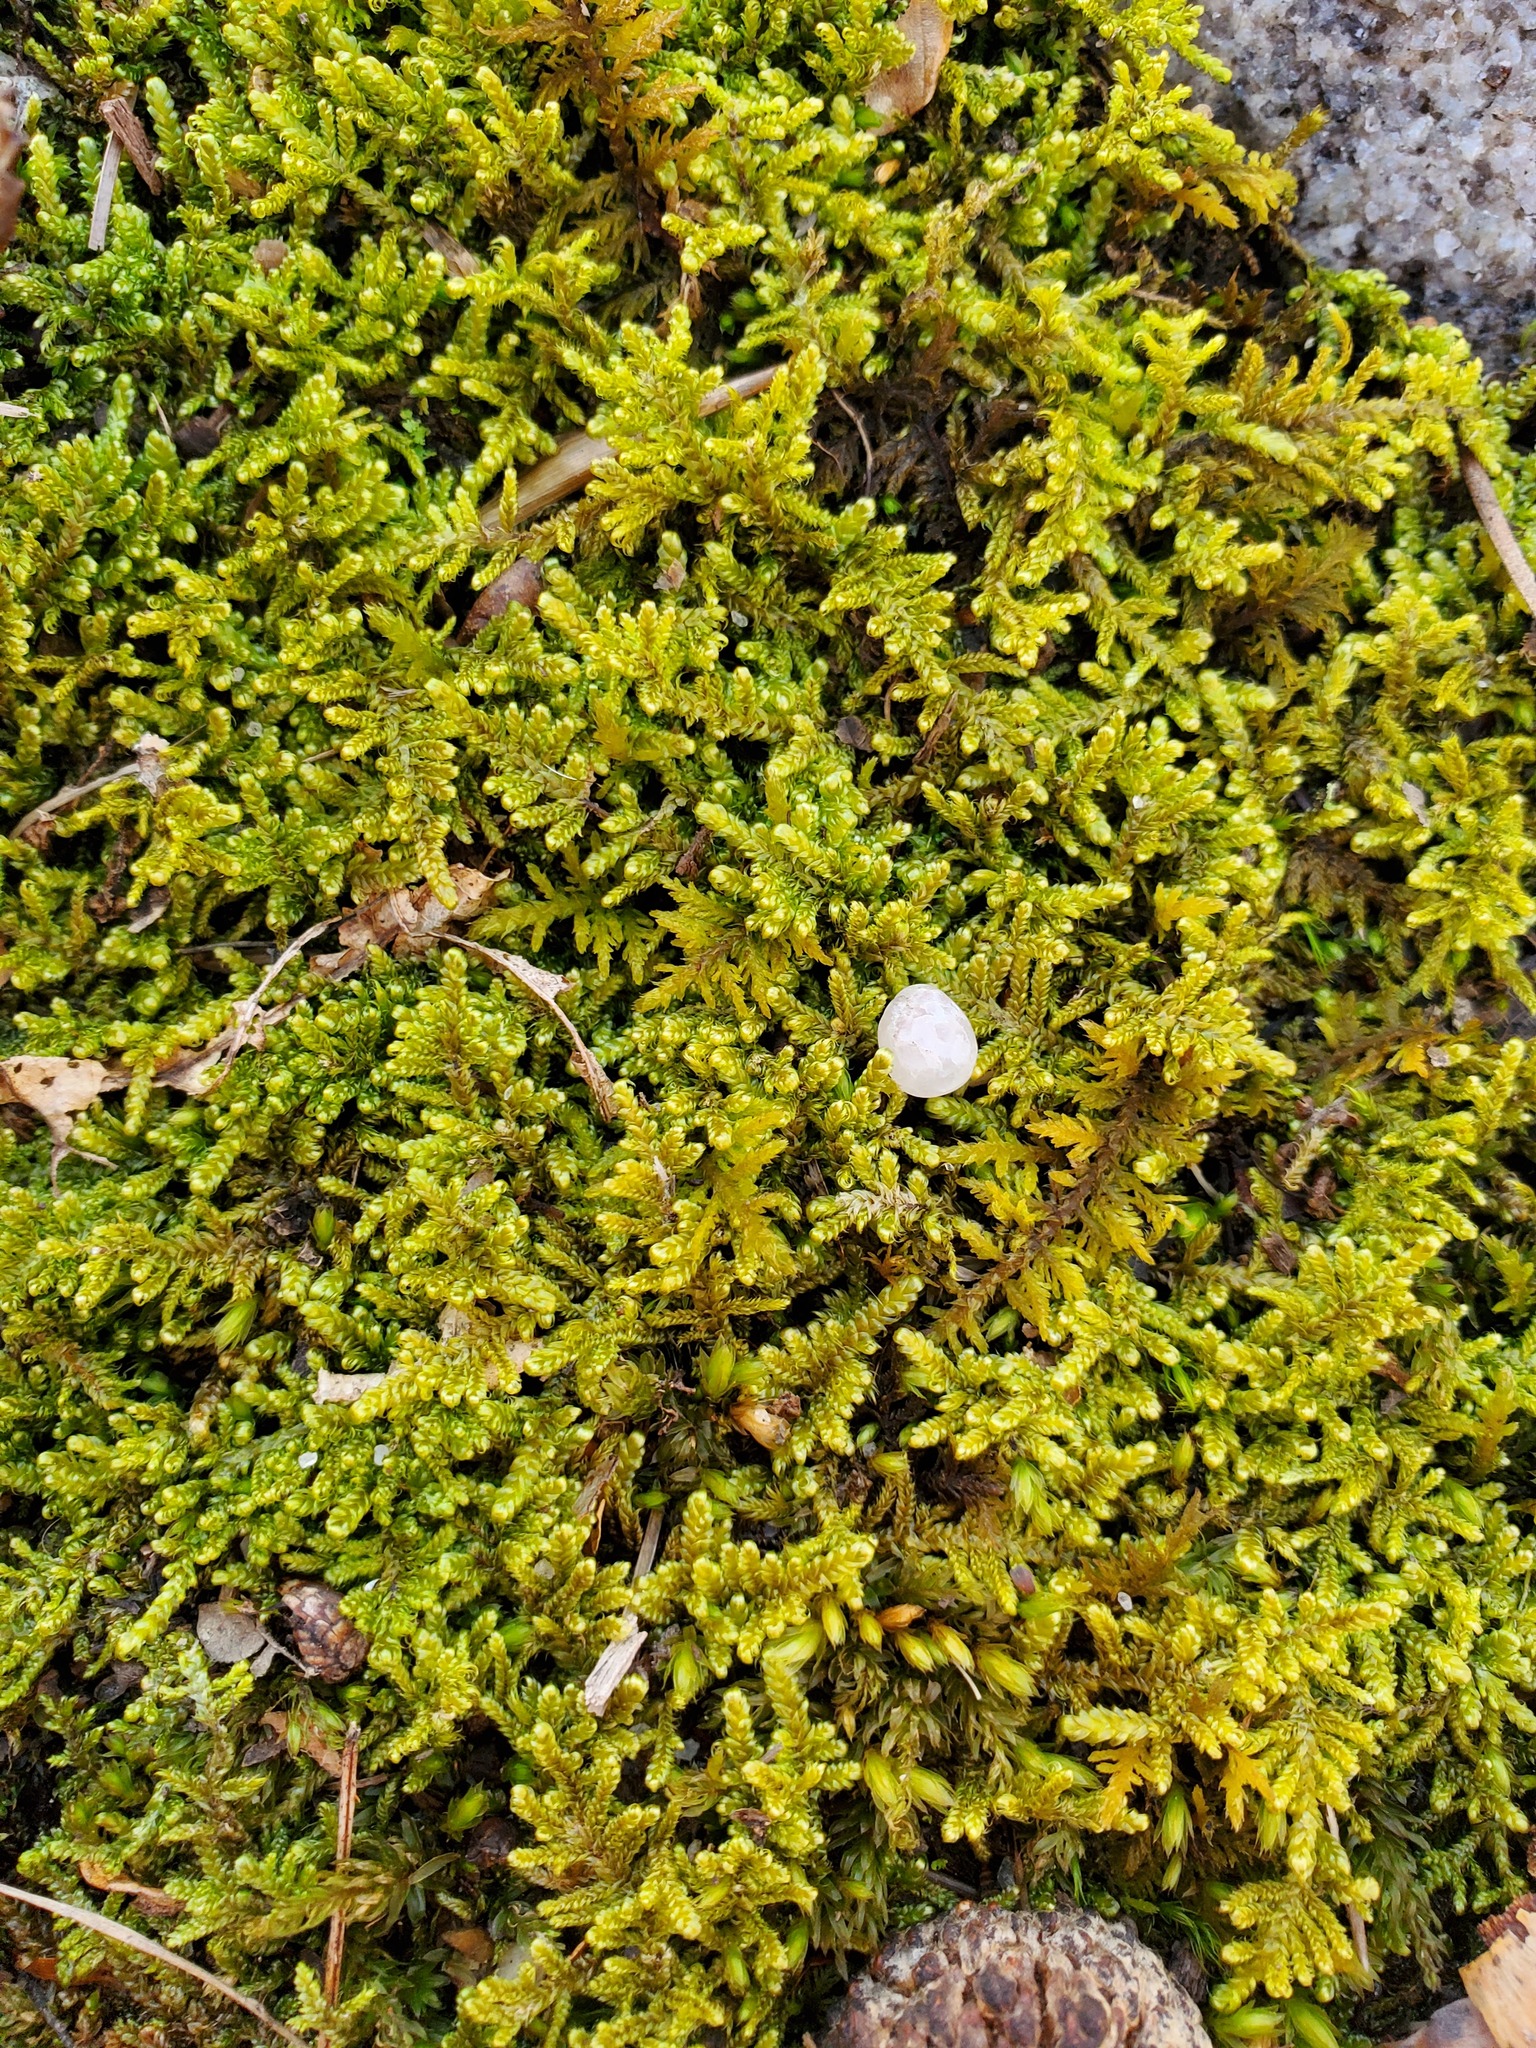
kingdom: Plantae
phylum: Bryophyta
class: Bryopsida
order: Hypnales
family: Callicladiaceae
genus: Callicladium
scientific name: Callicladium imponens
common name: Brocade moss
